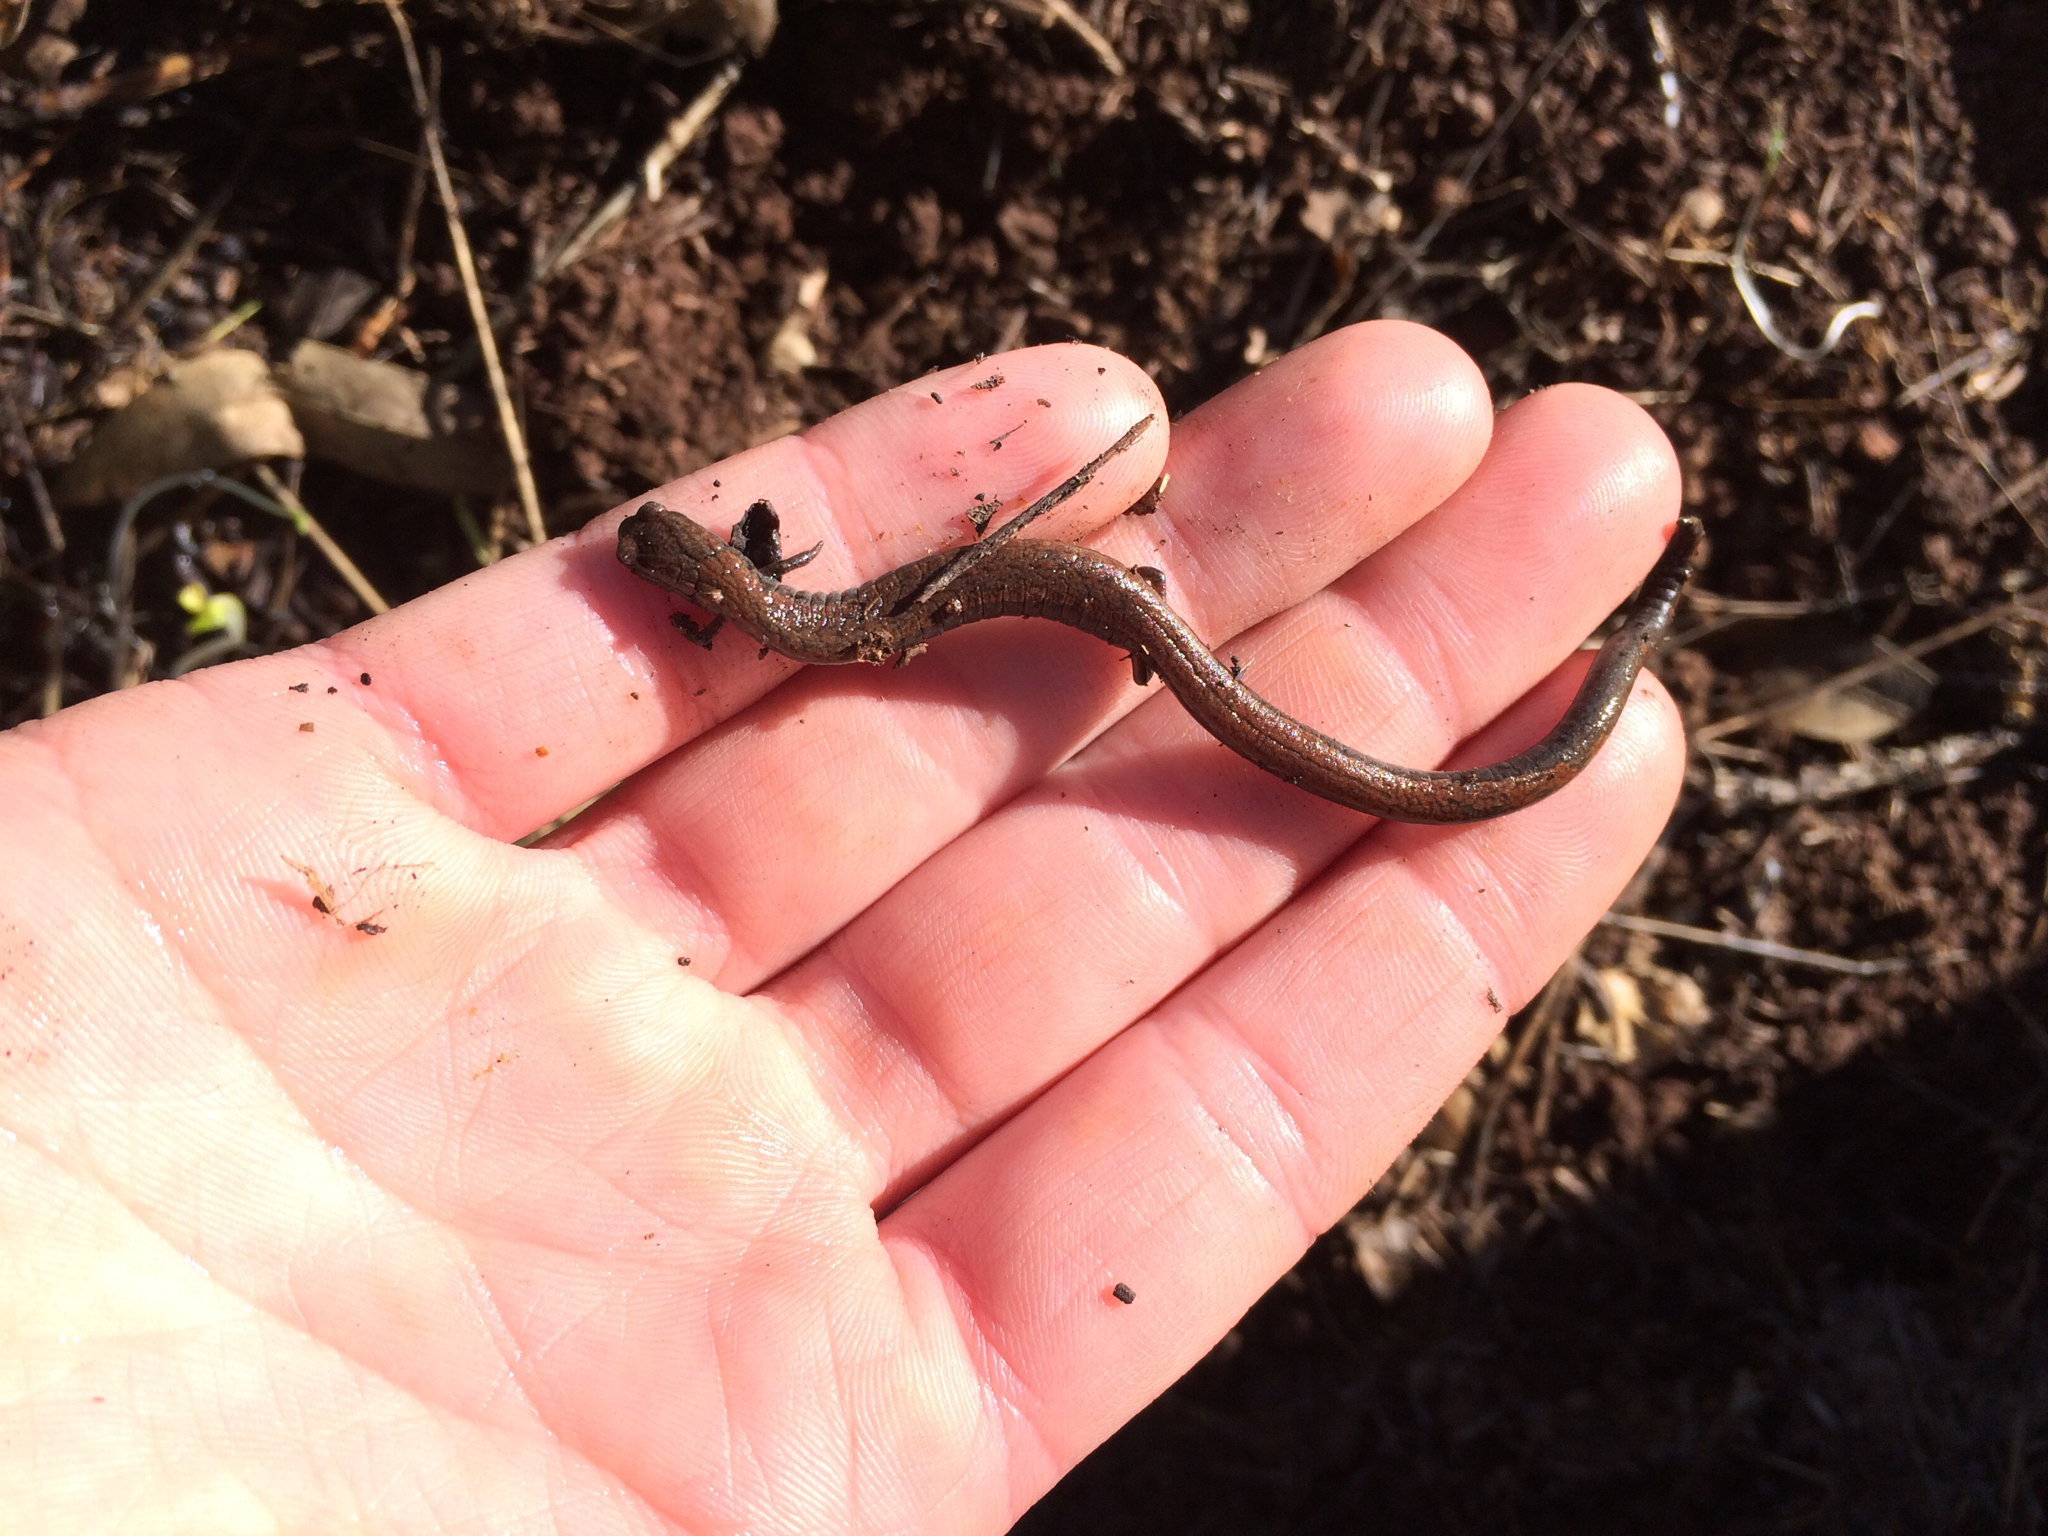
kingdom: Animalia
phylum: Chordata
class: Amphibia
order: Caudata
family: Plethodontidae
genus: Batrachoseps
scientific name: Batrachoseps attenuatus
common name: California slender salamander
